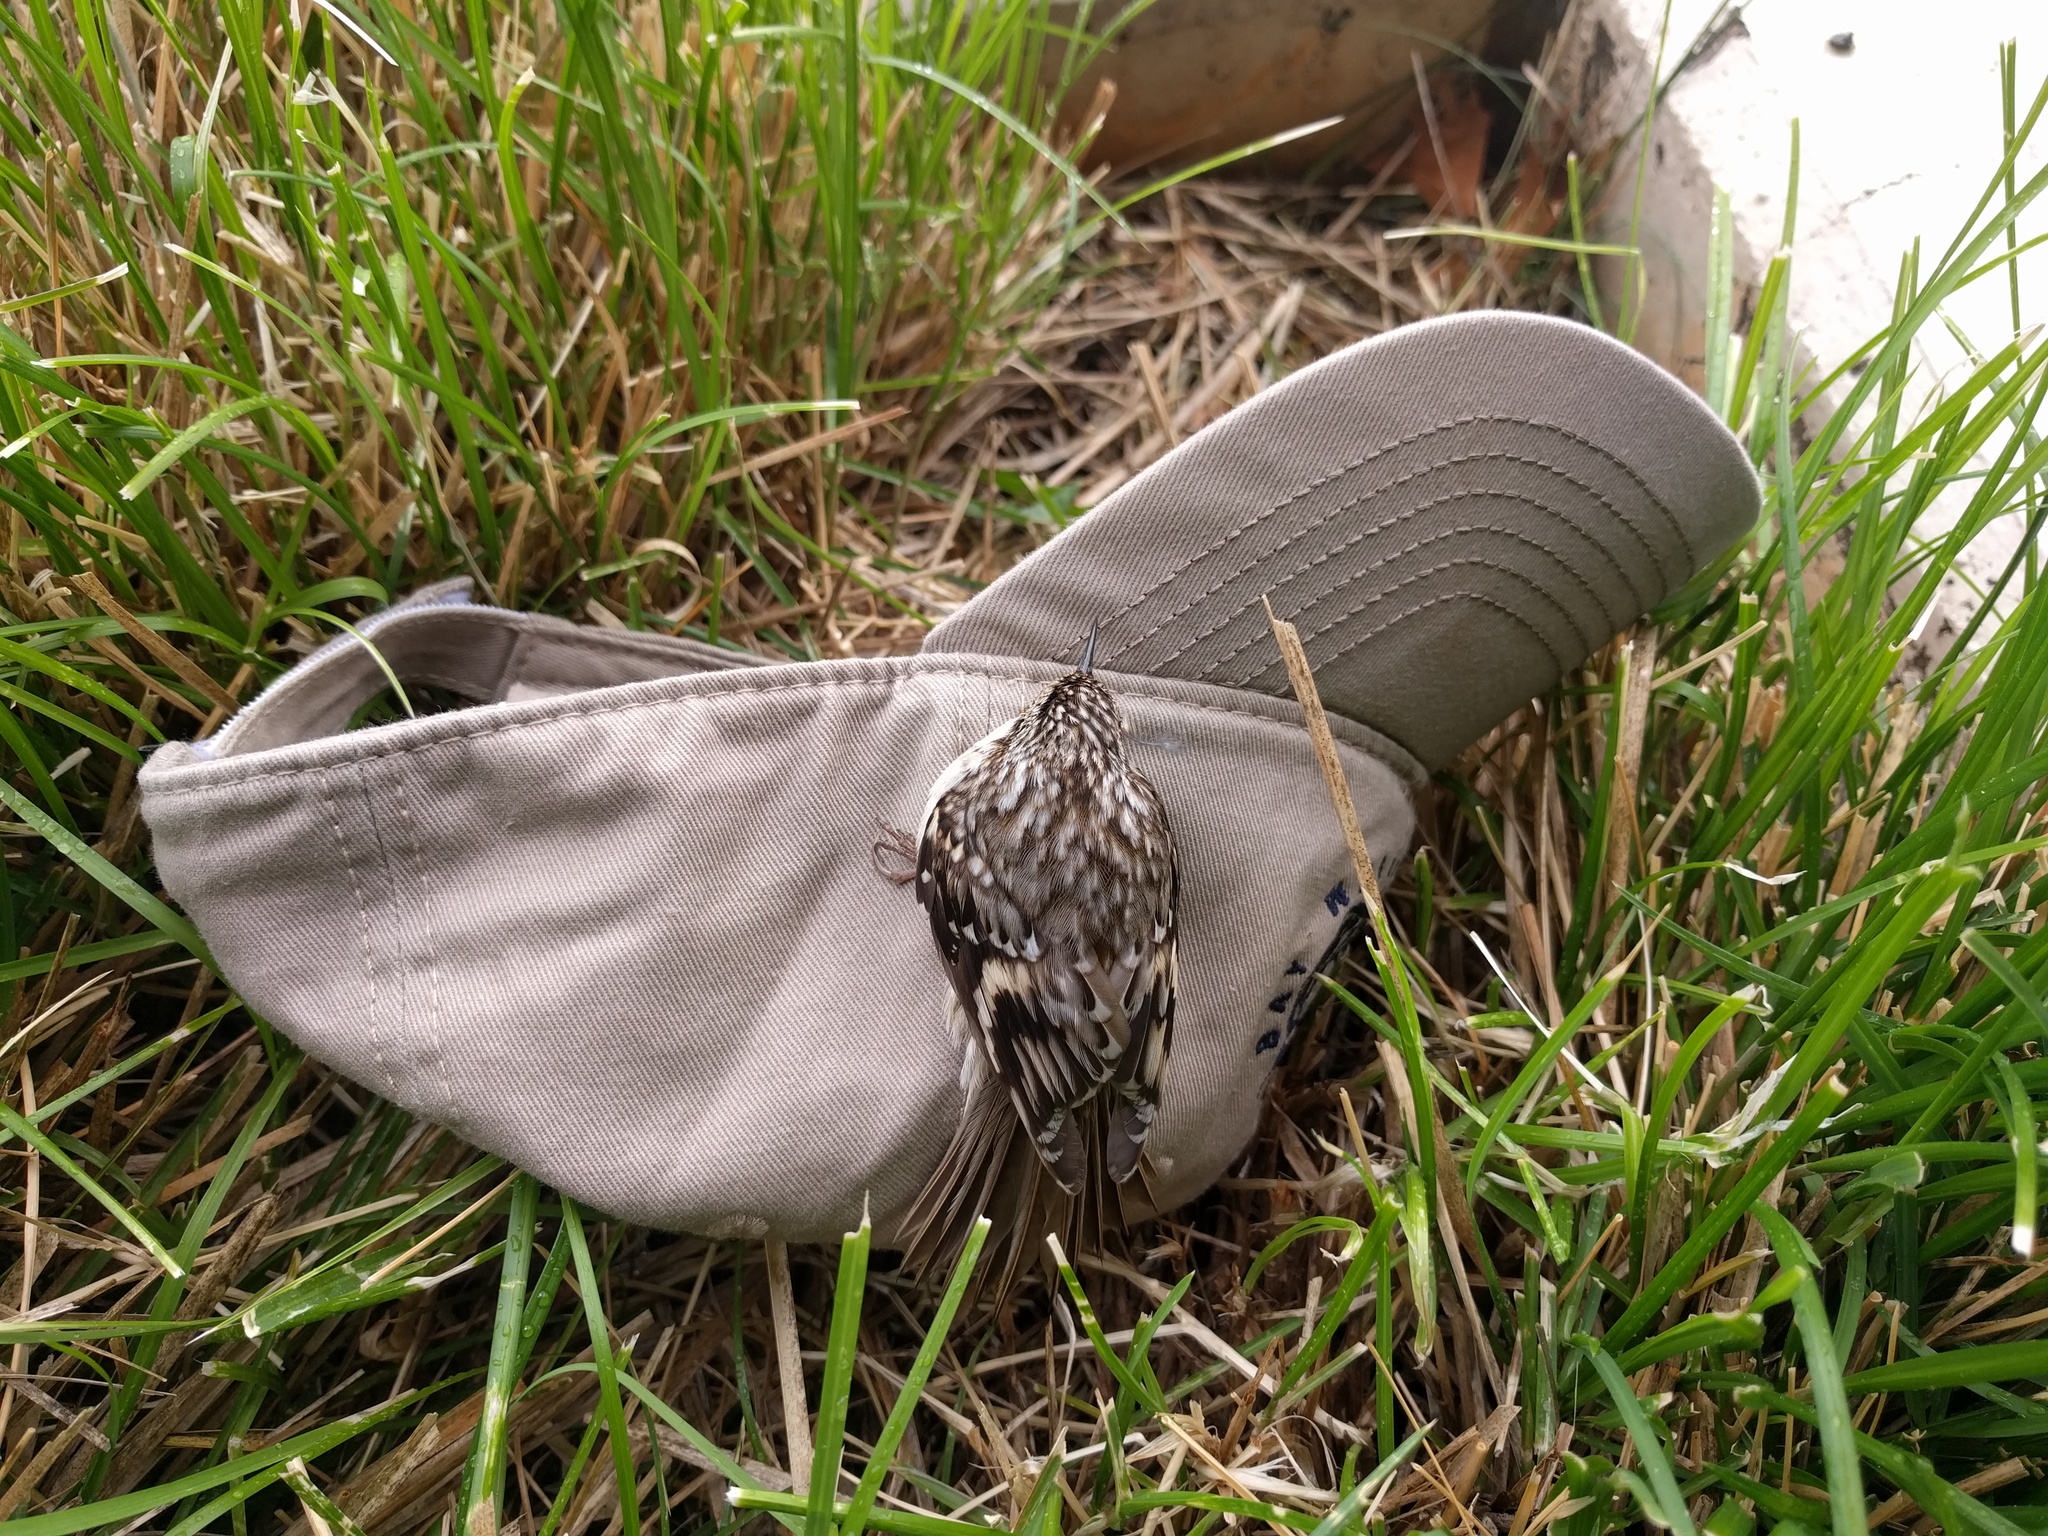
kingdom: Animalia
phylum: Chordata
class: Aves
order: Passeriformes
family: Certhiidae
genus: Certhia
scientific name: Certhia americana
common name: Brown creeper
